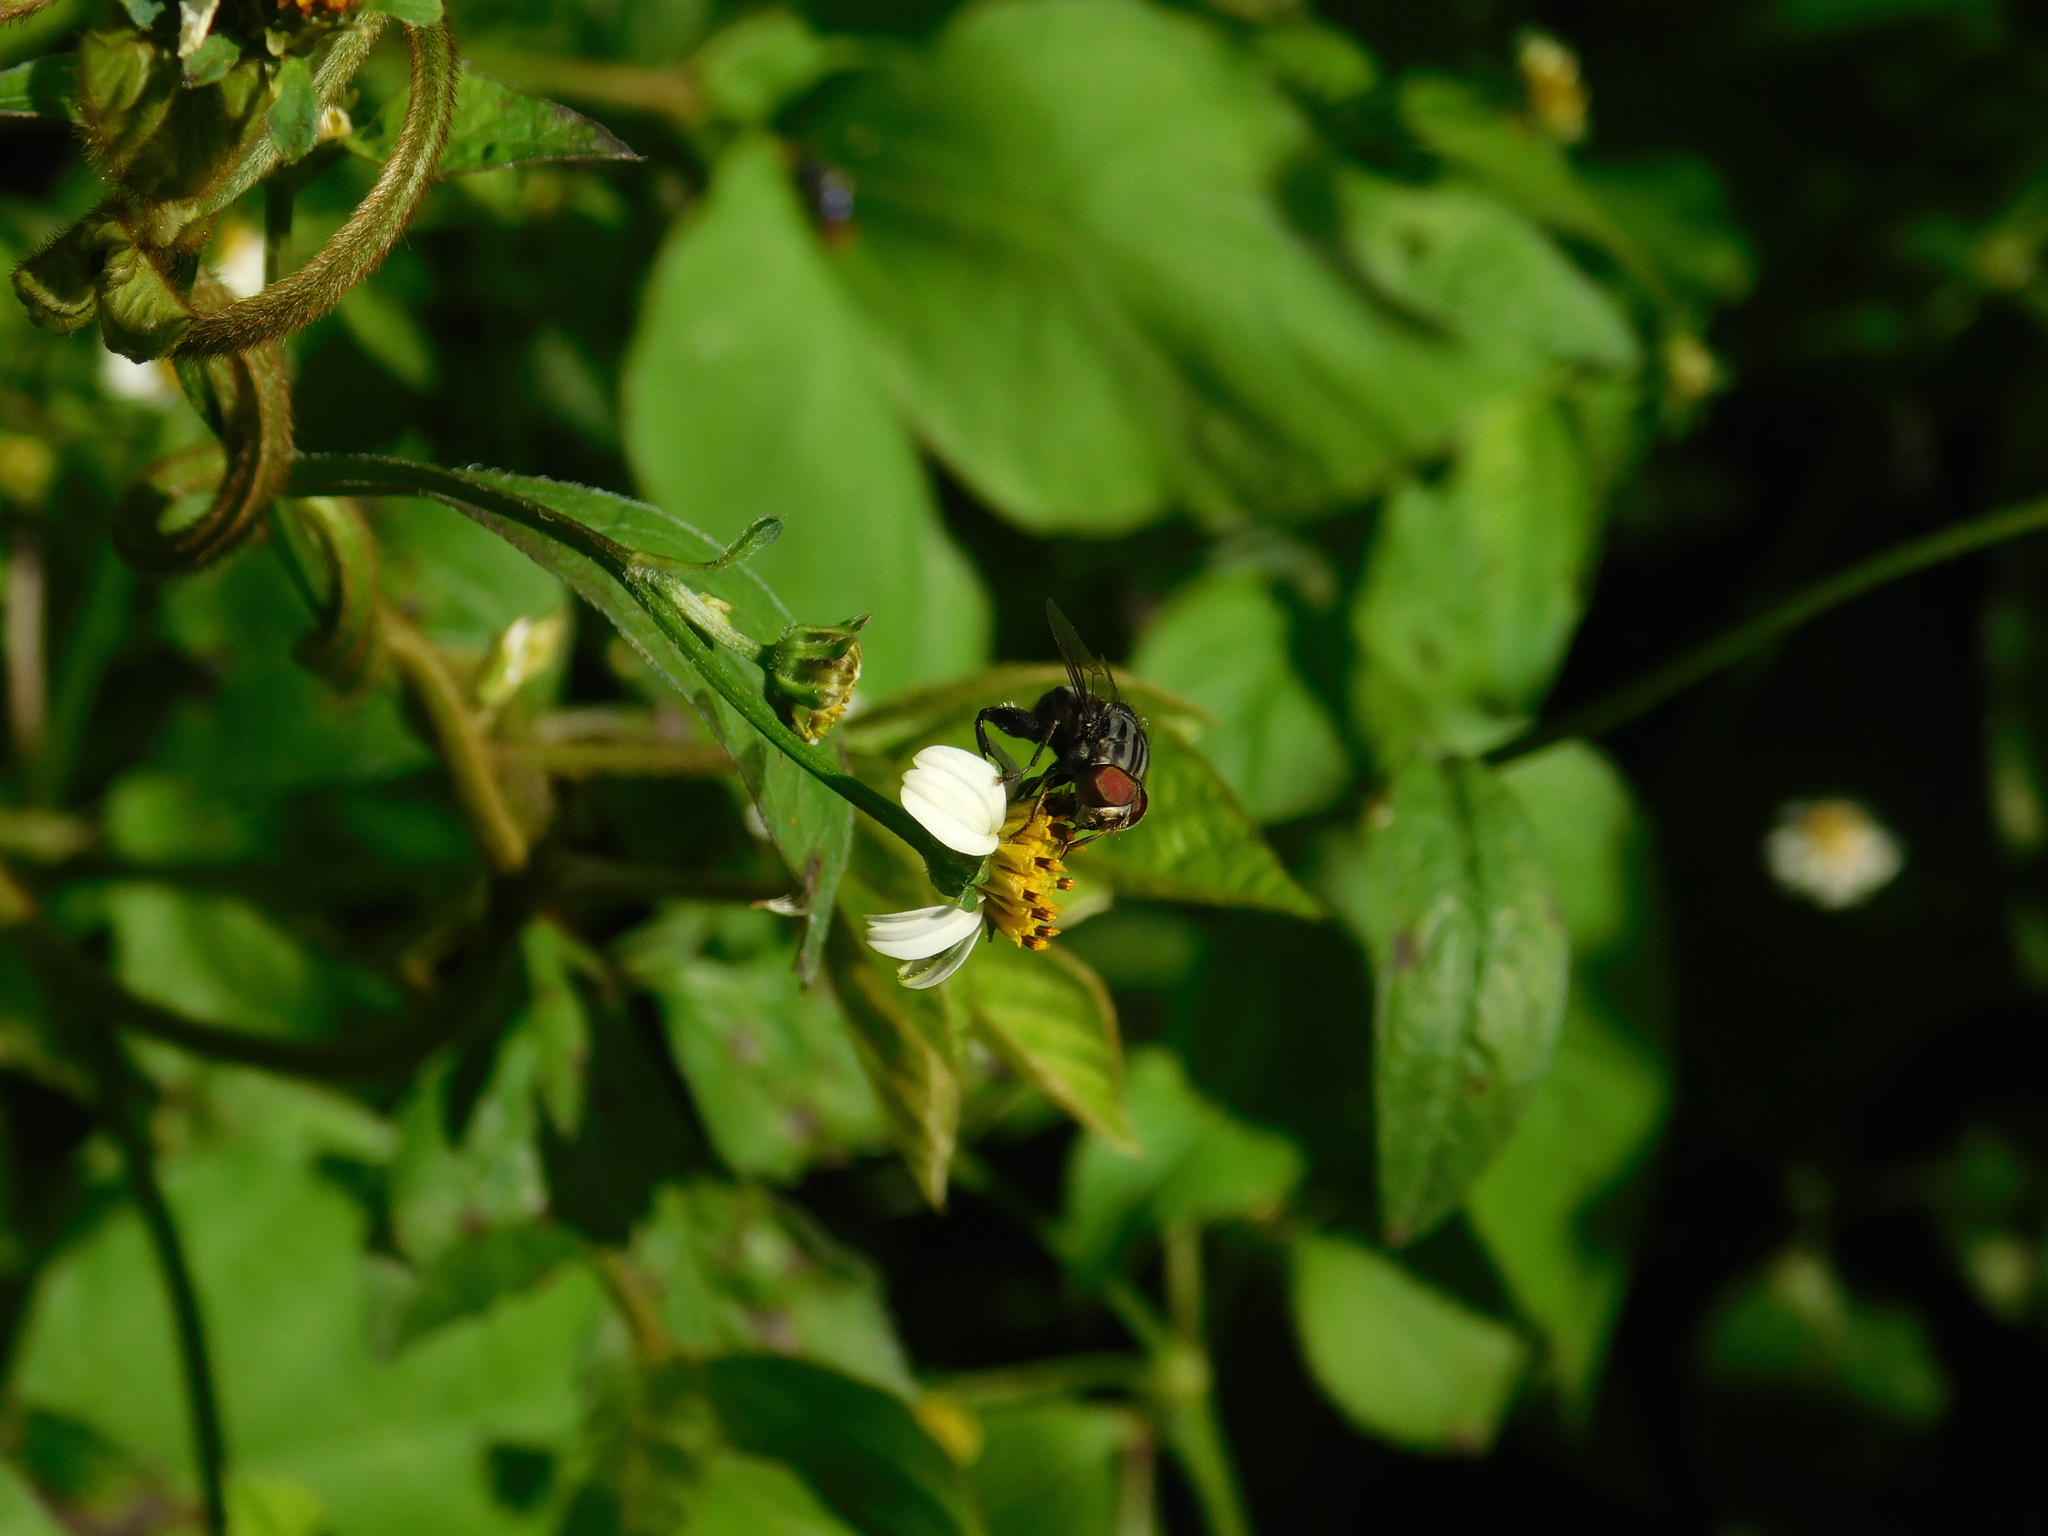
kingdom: Animalia
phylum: Arthropoda
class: Insecta
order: Diptera
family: Syrphidae
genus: Palpada
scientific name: Palpada furcata
